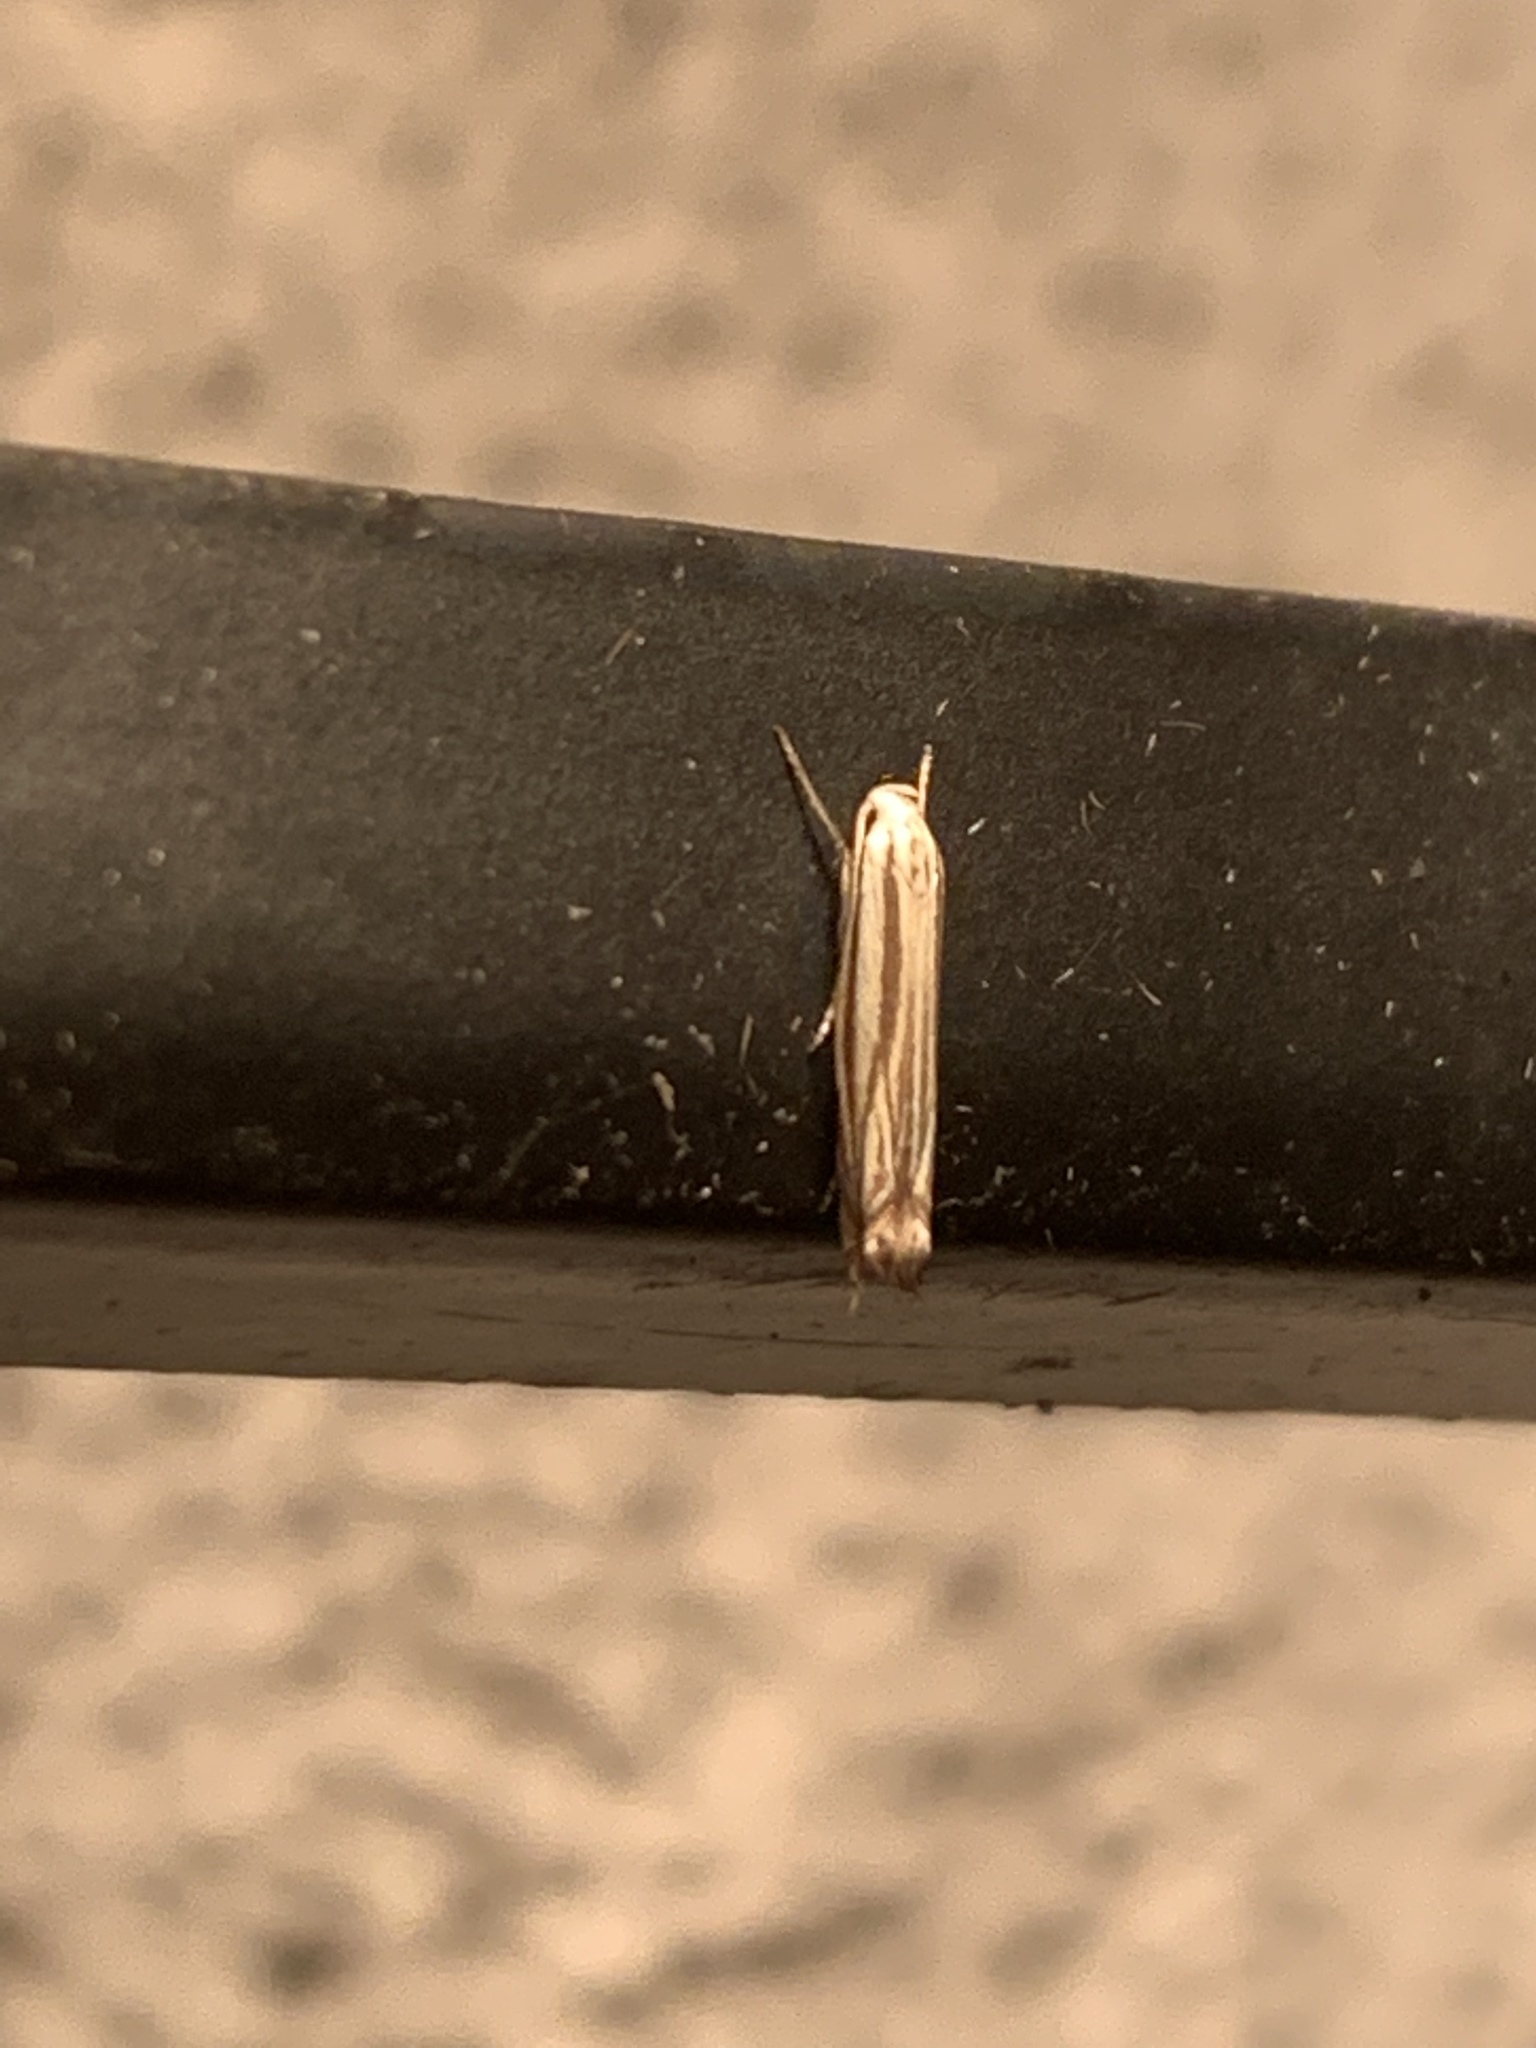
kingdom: Animalia
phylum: Arthropoda
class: Insecta
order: Lepidoptera
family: Gelechiidae
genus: Polyhymno
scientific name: Polyhymno luteostrigella
